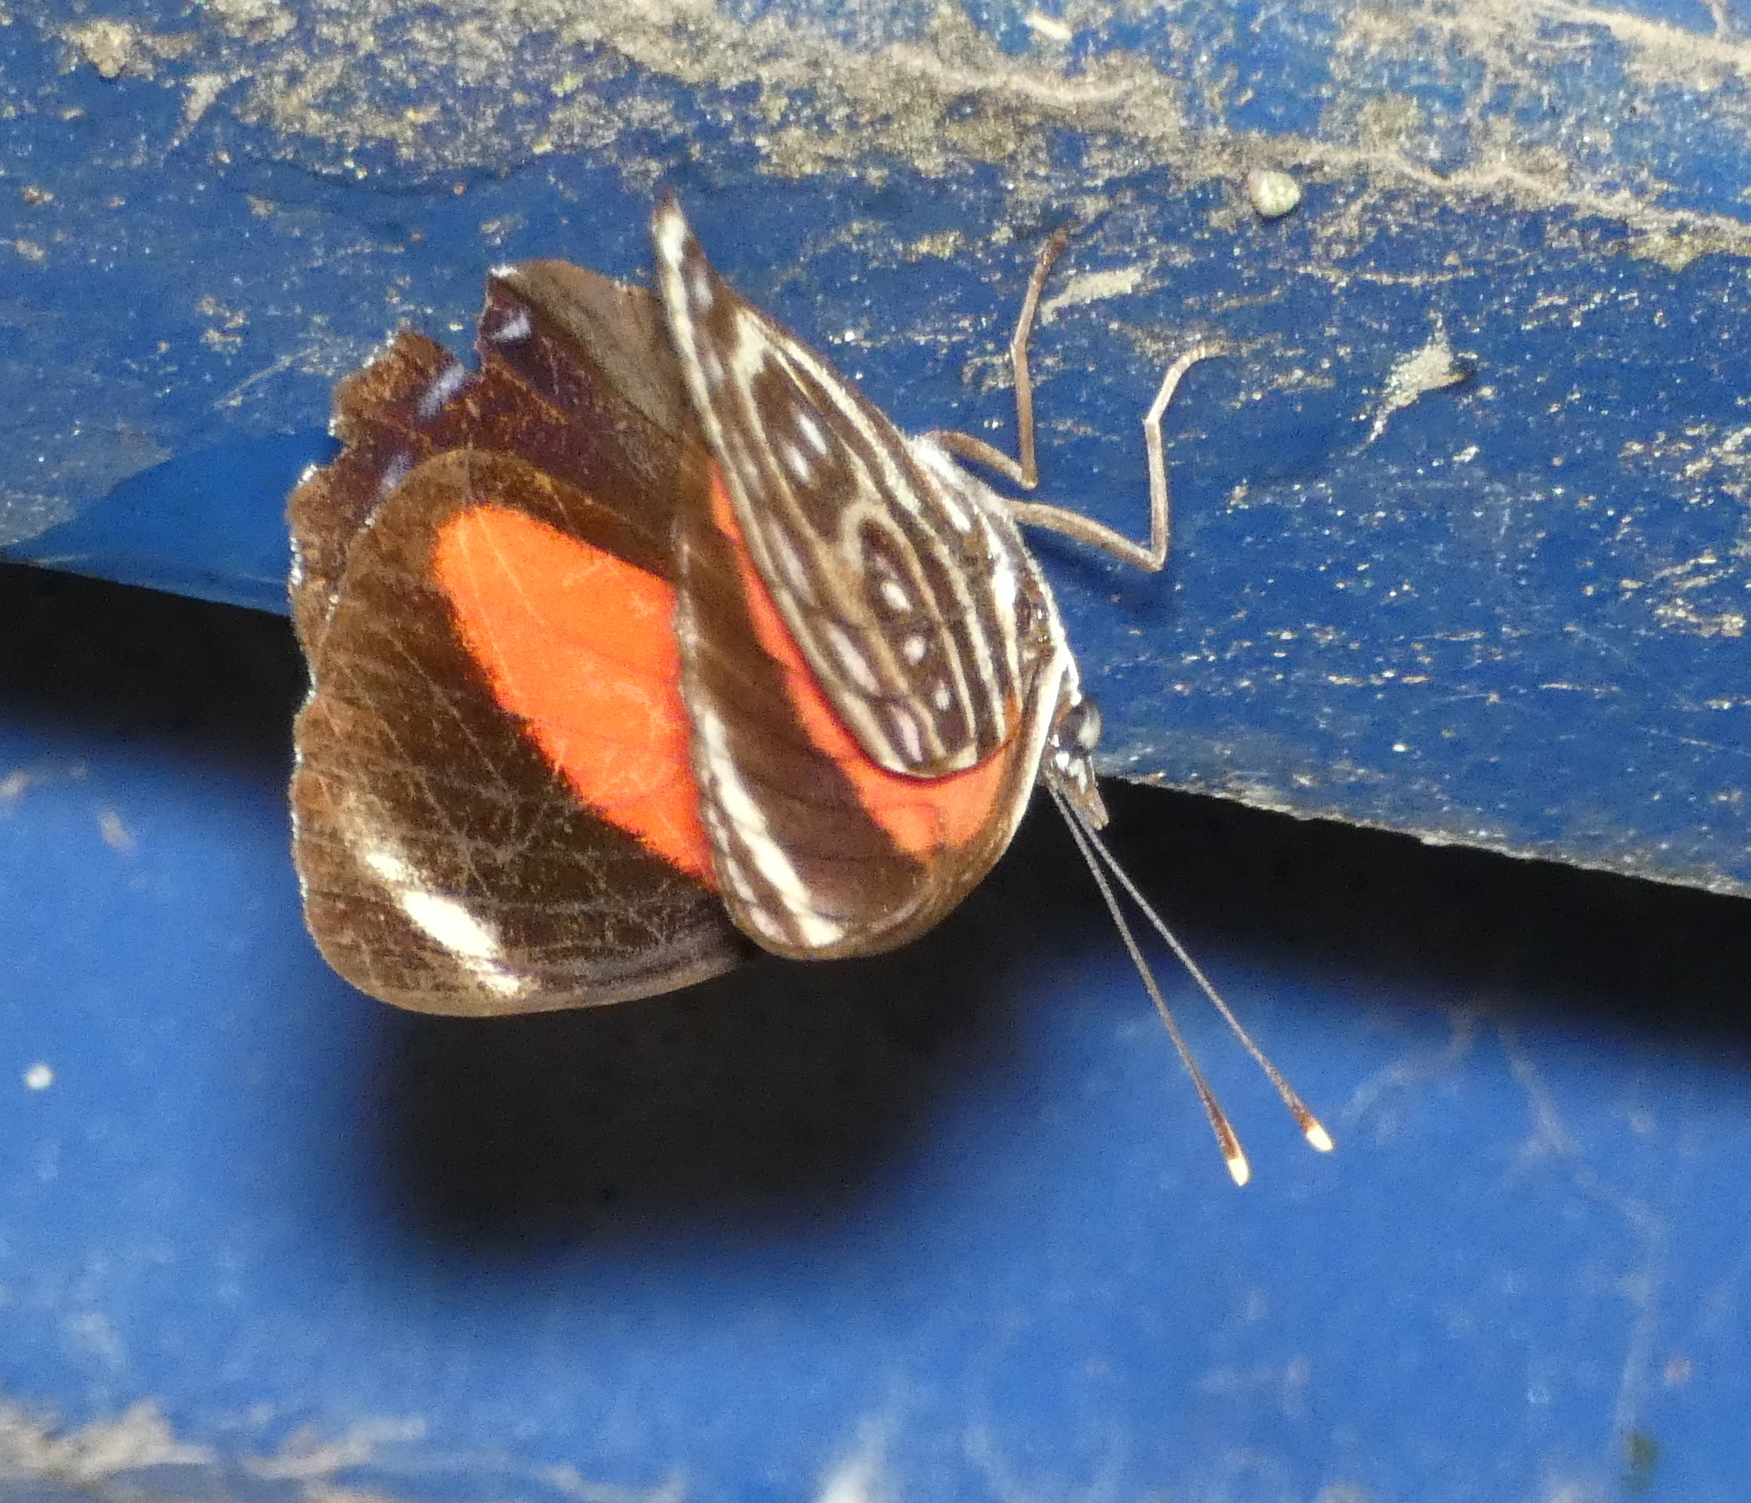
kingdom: Animalia
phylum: Arthropoda
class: Insecta
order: Lepidoptera
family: Nymphalidae
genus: Catagramma
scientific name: Catagramma pygas
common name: Godart's numberwing
